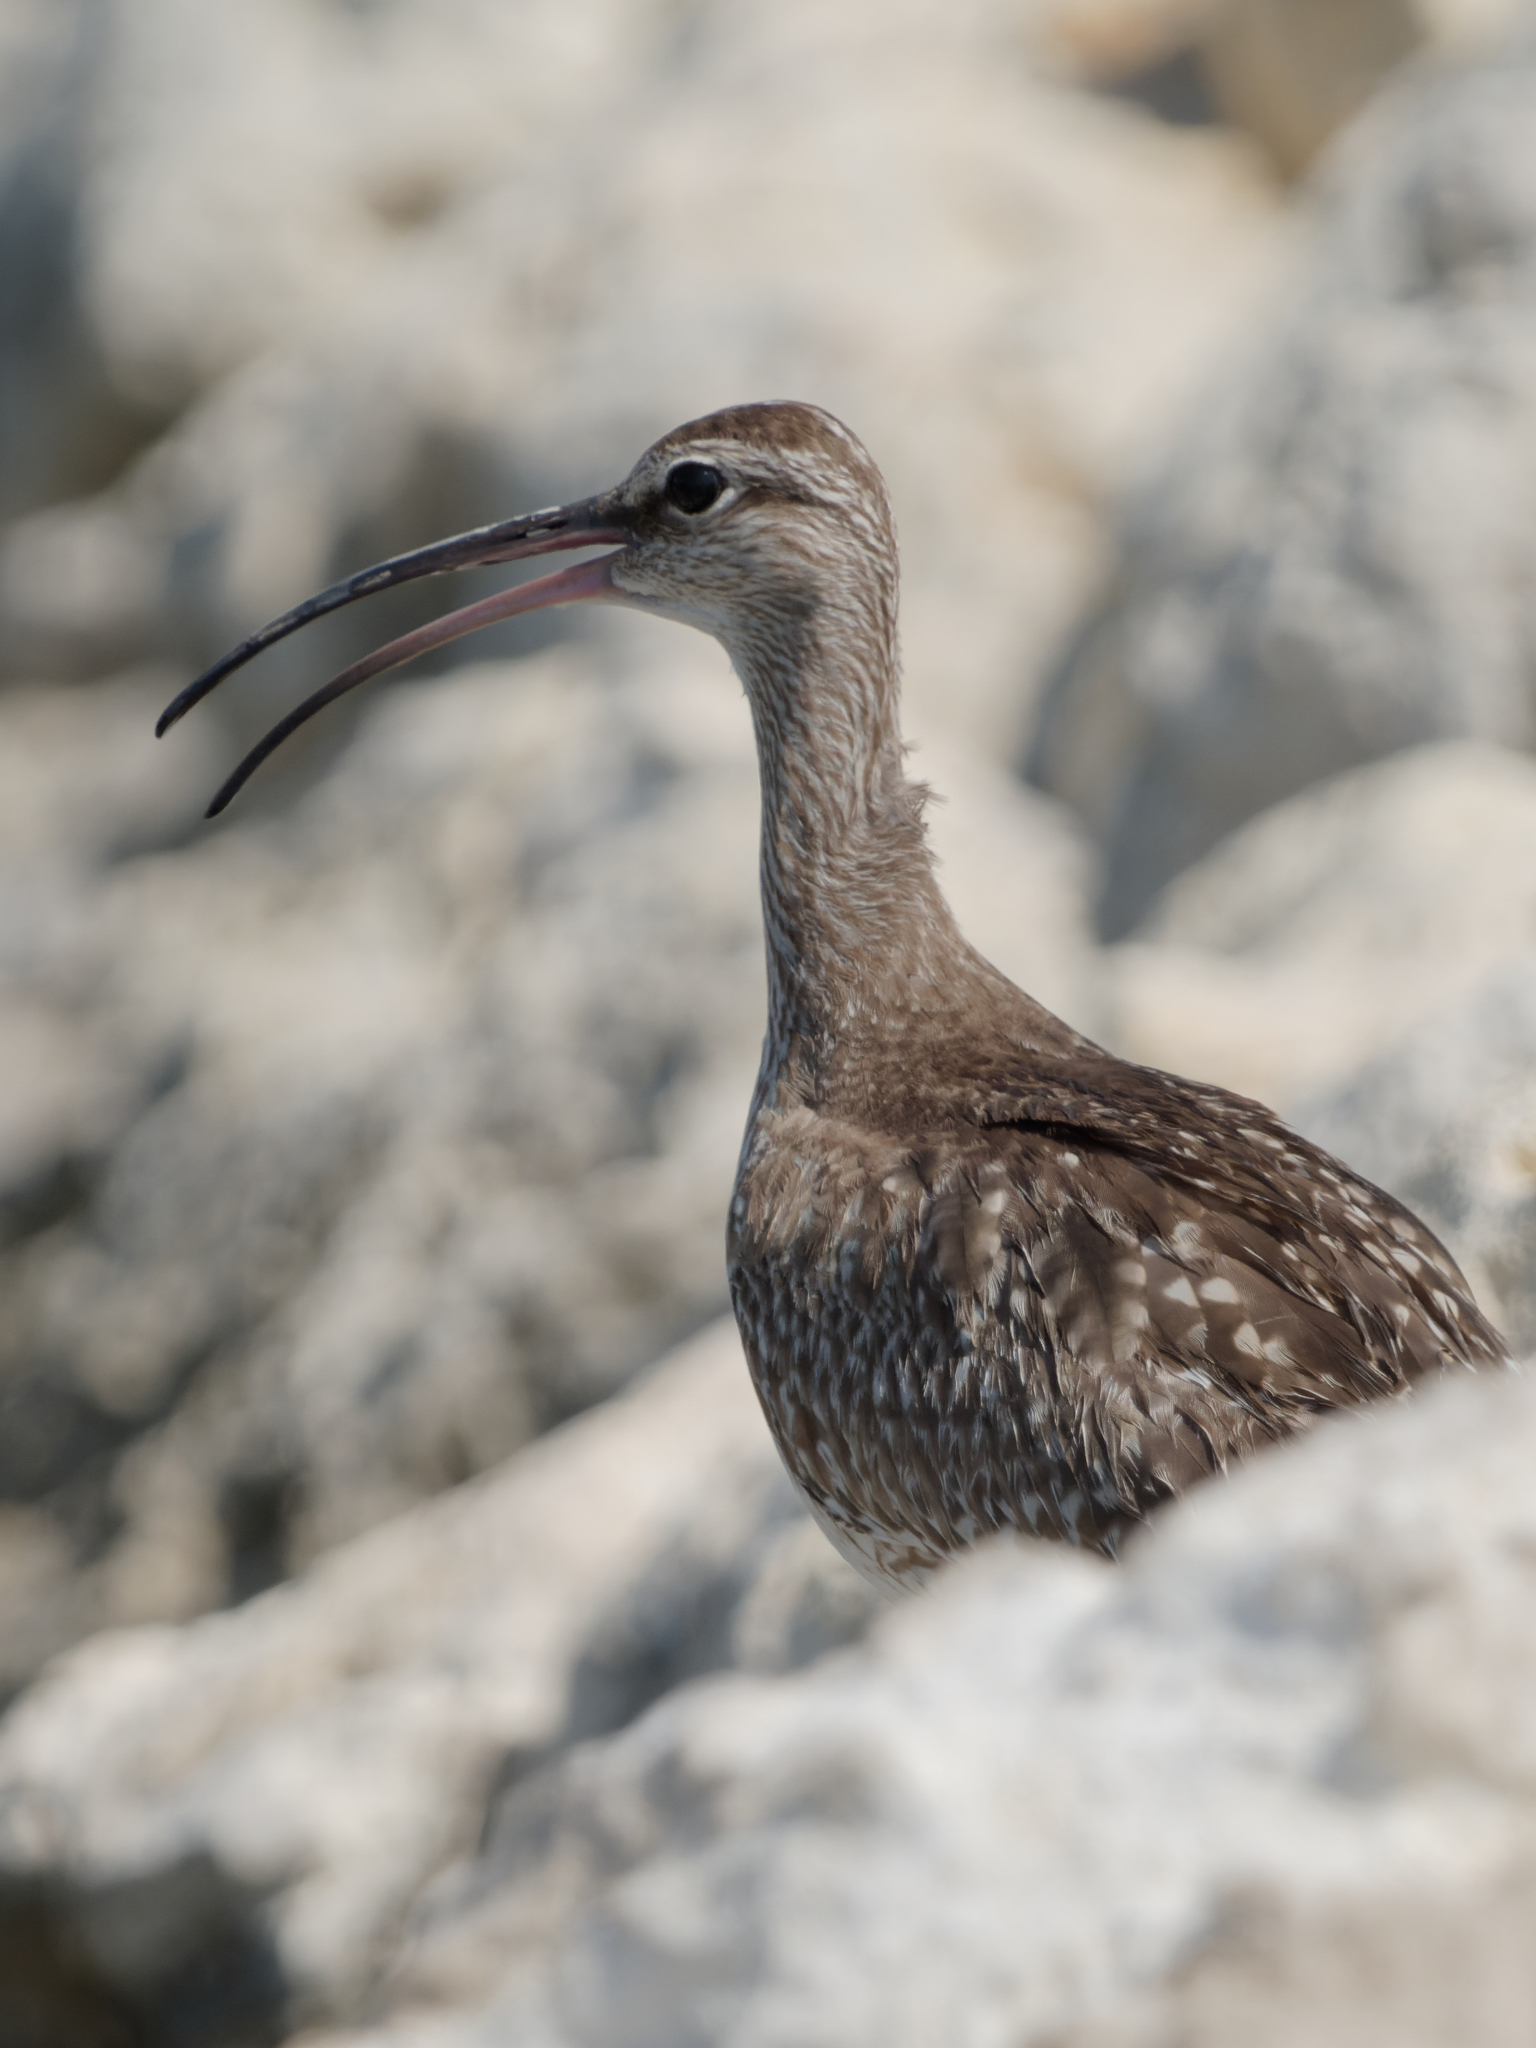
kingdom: Animalia
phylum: Chordata
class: Aves
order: Charadriiformes
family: Scolopacidae
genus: Numenius
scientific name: Numenius phaeopus
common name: Whimbrel
